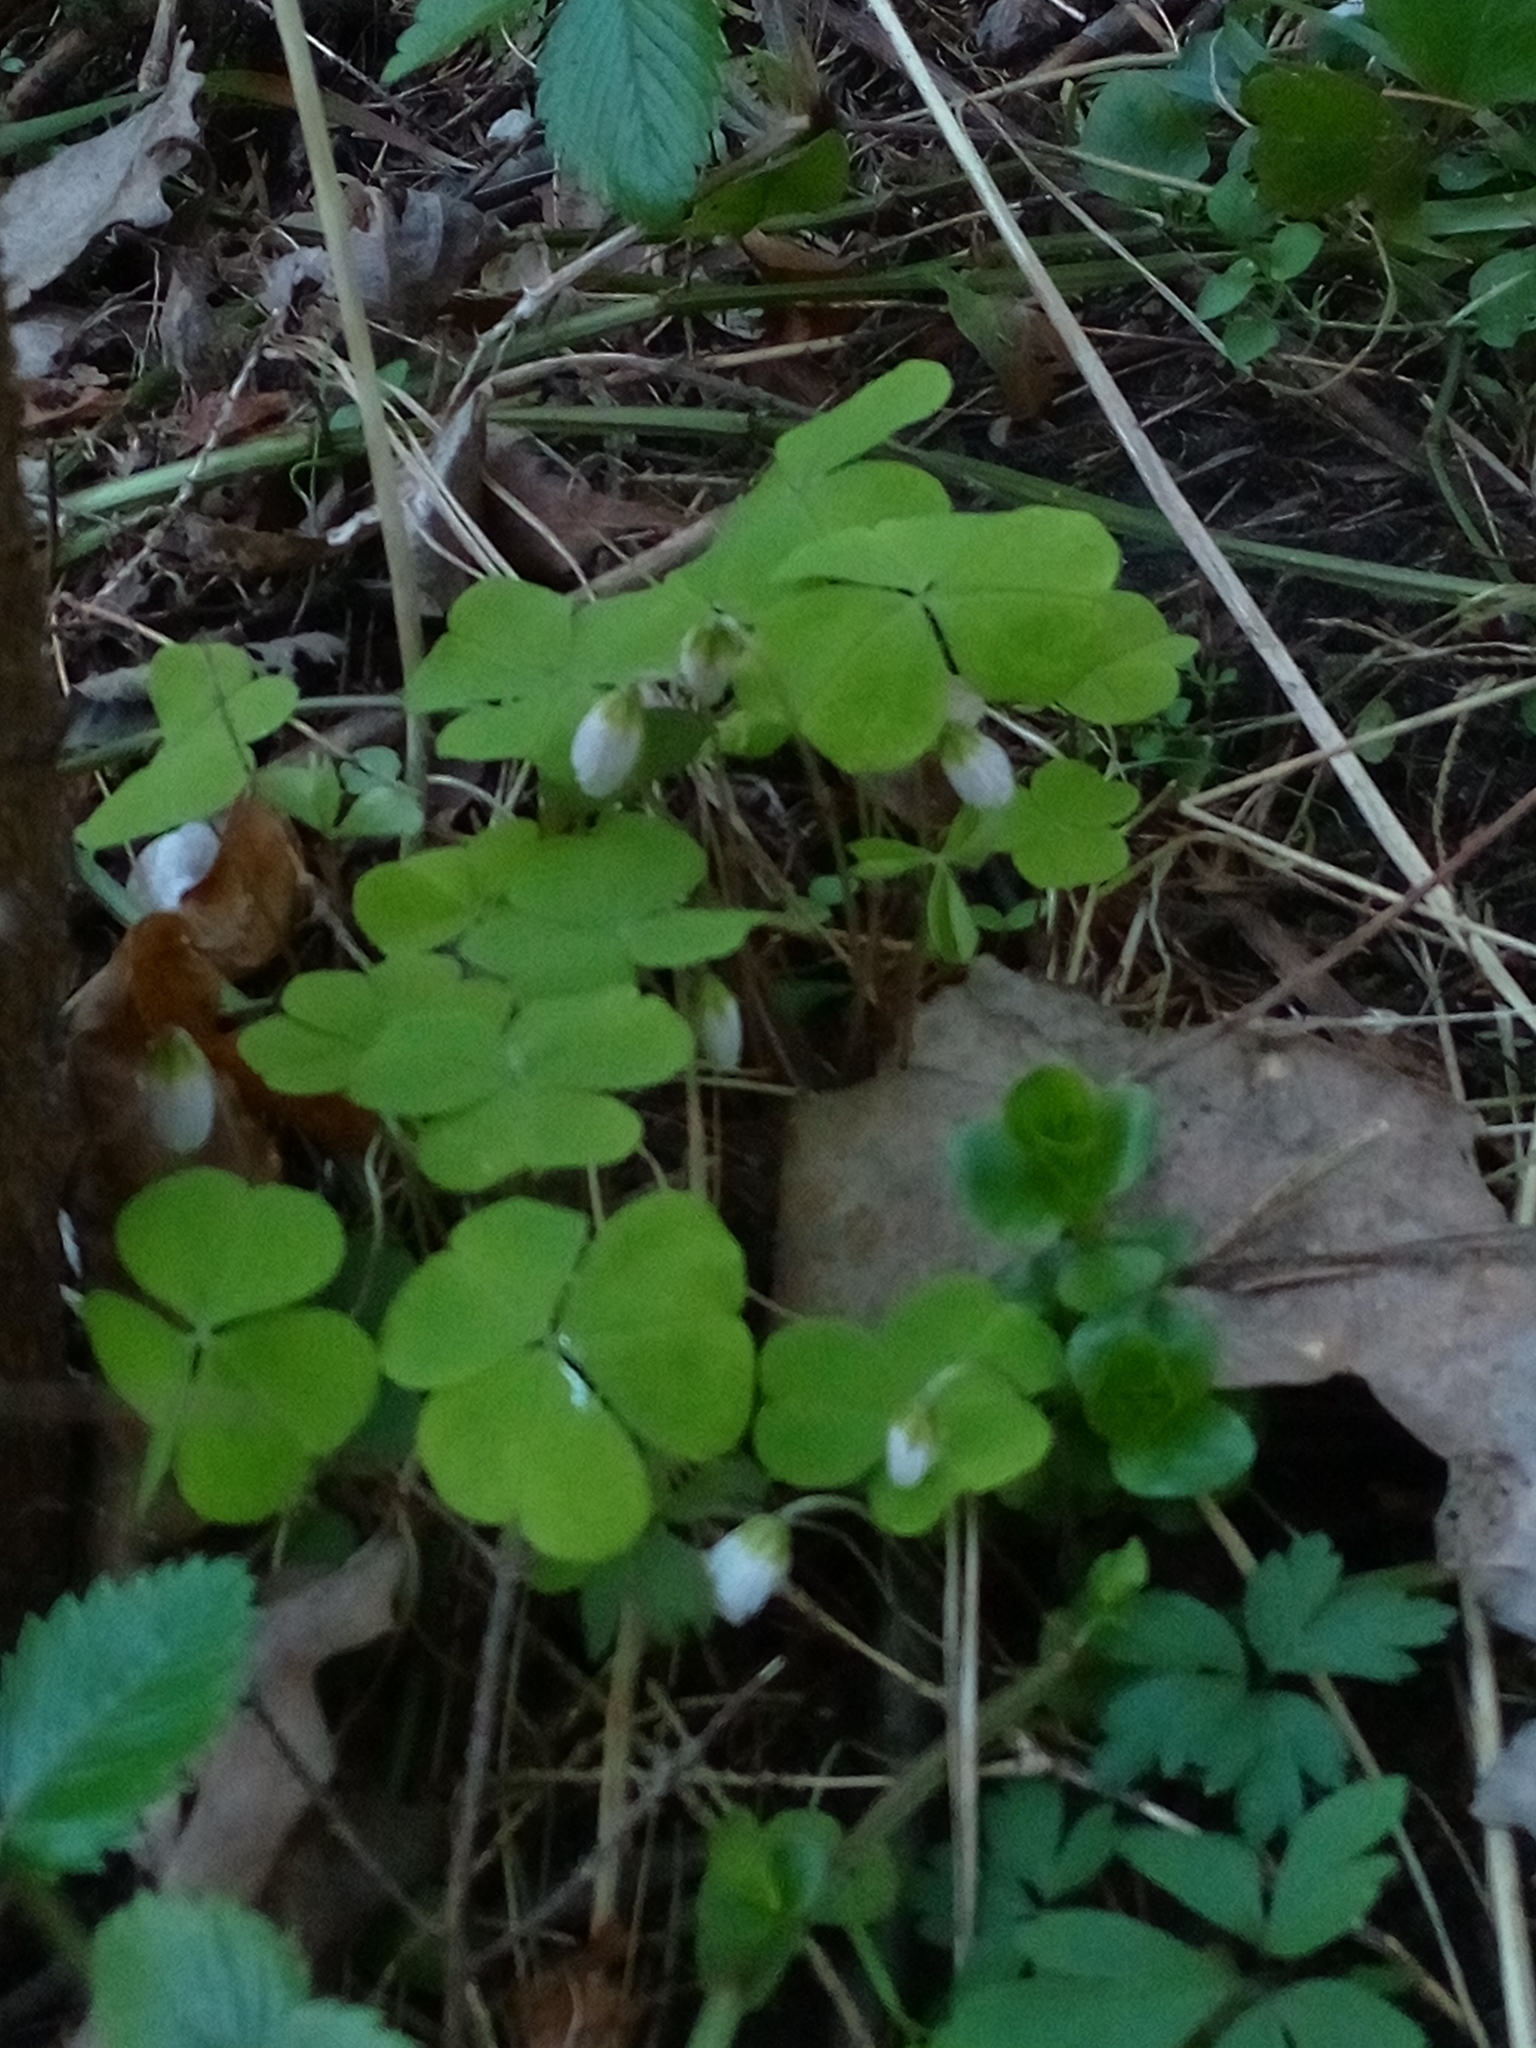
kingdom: Plantae
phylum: Tracheophyta
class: Magnoliopsida
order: Oxalidales
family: Oxalidaceae
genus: Oxalis
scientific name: Oxalis acetosella
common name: Wood-sorrel
